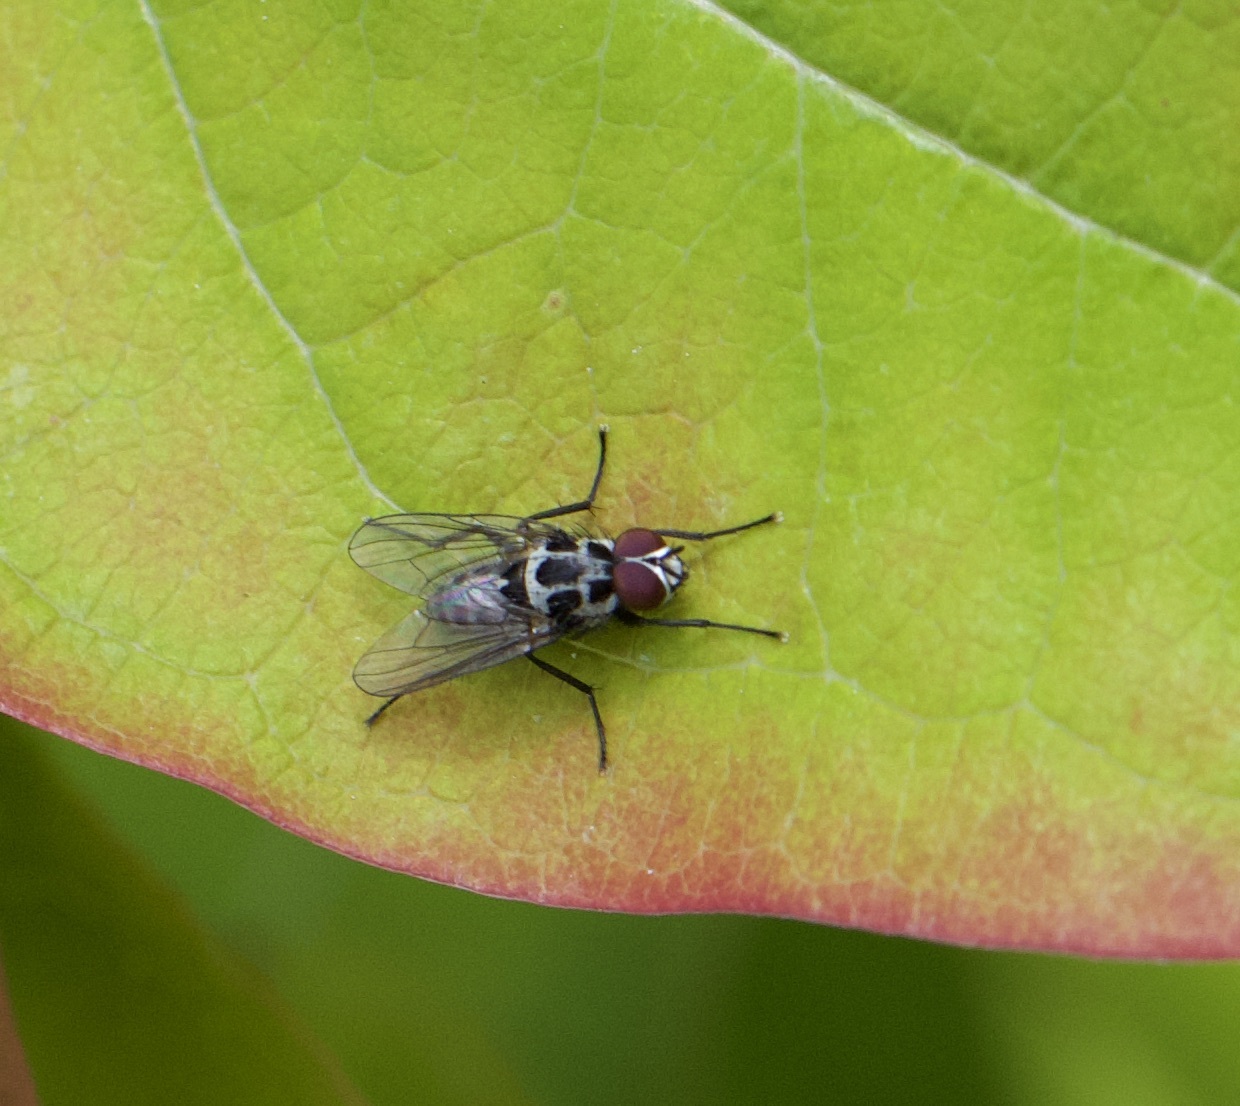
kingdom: Animalia
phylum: Arthropoda
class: Insecta
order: Diptera
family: Anthomyiidae
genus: Anthomyia
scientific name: Anthomyia procellaris
